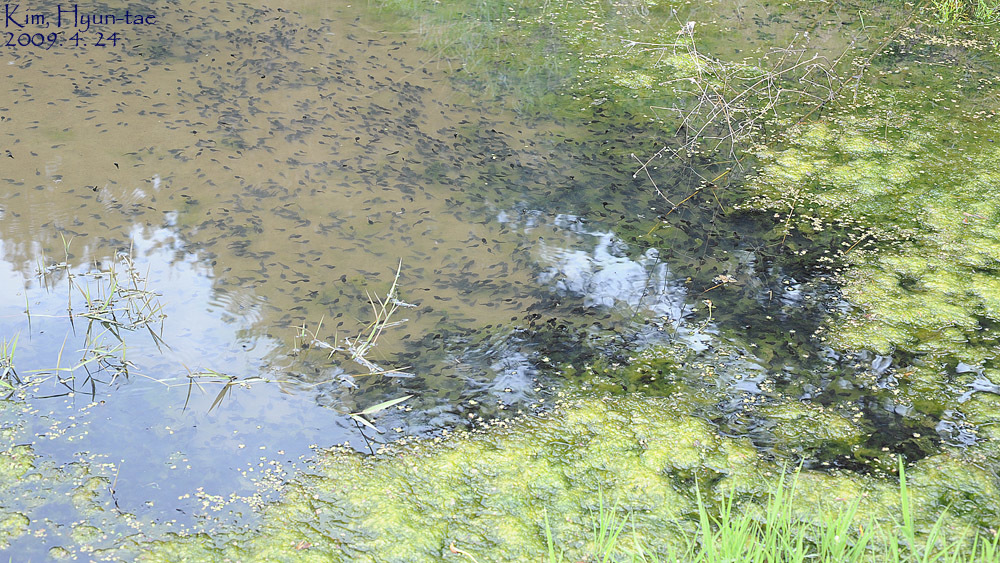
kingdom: Animalia
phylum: Chordata
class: Amphibia
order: Anura
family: Bufonidae
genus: Bufo
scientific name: Bufo gargarizans
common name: Asiatic toad
